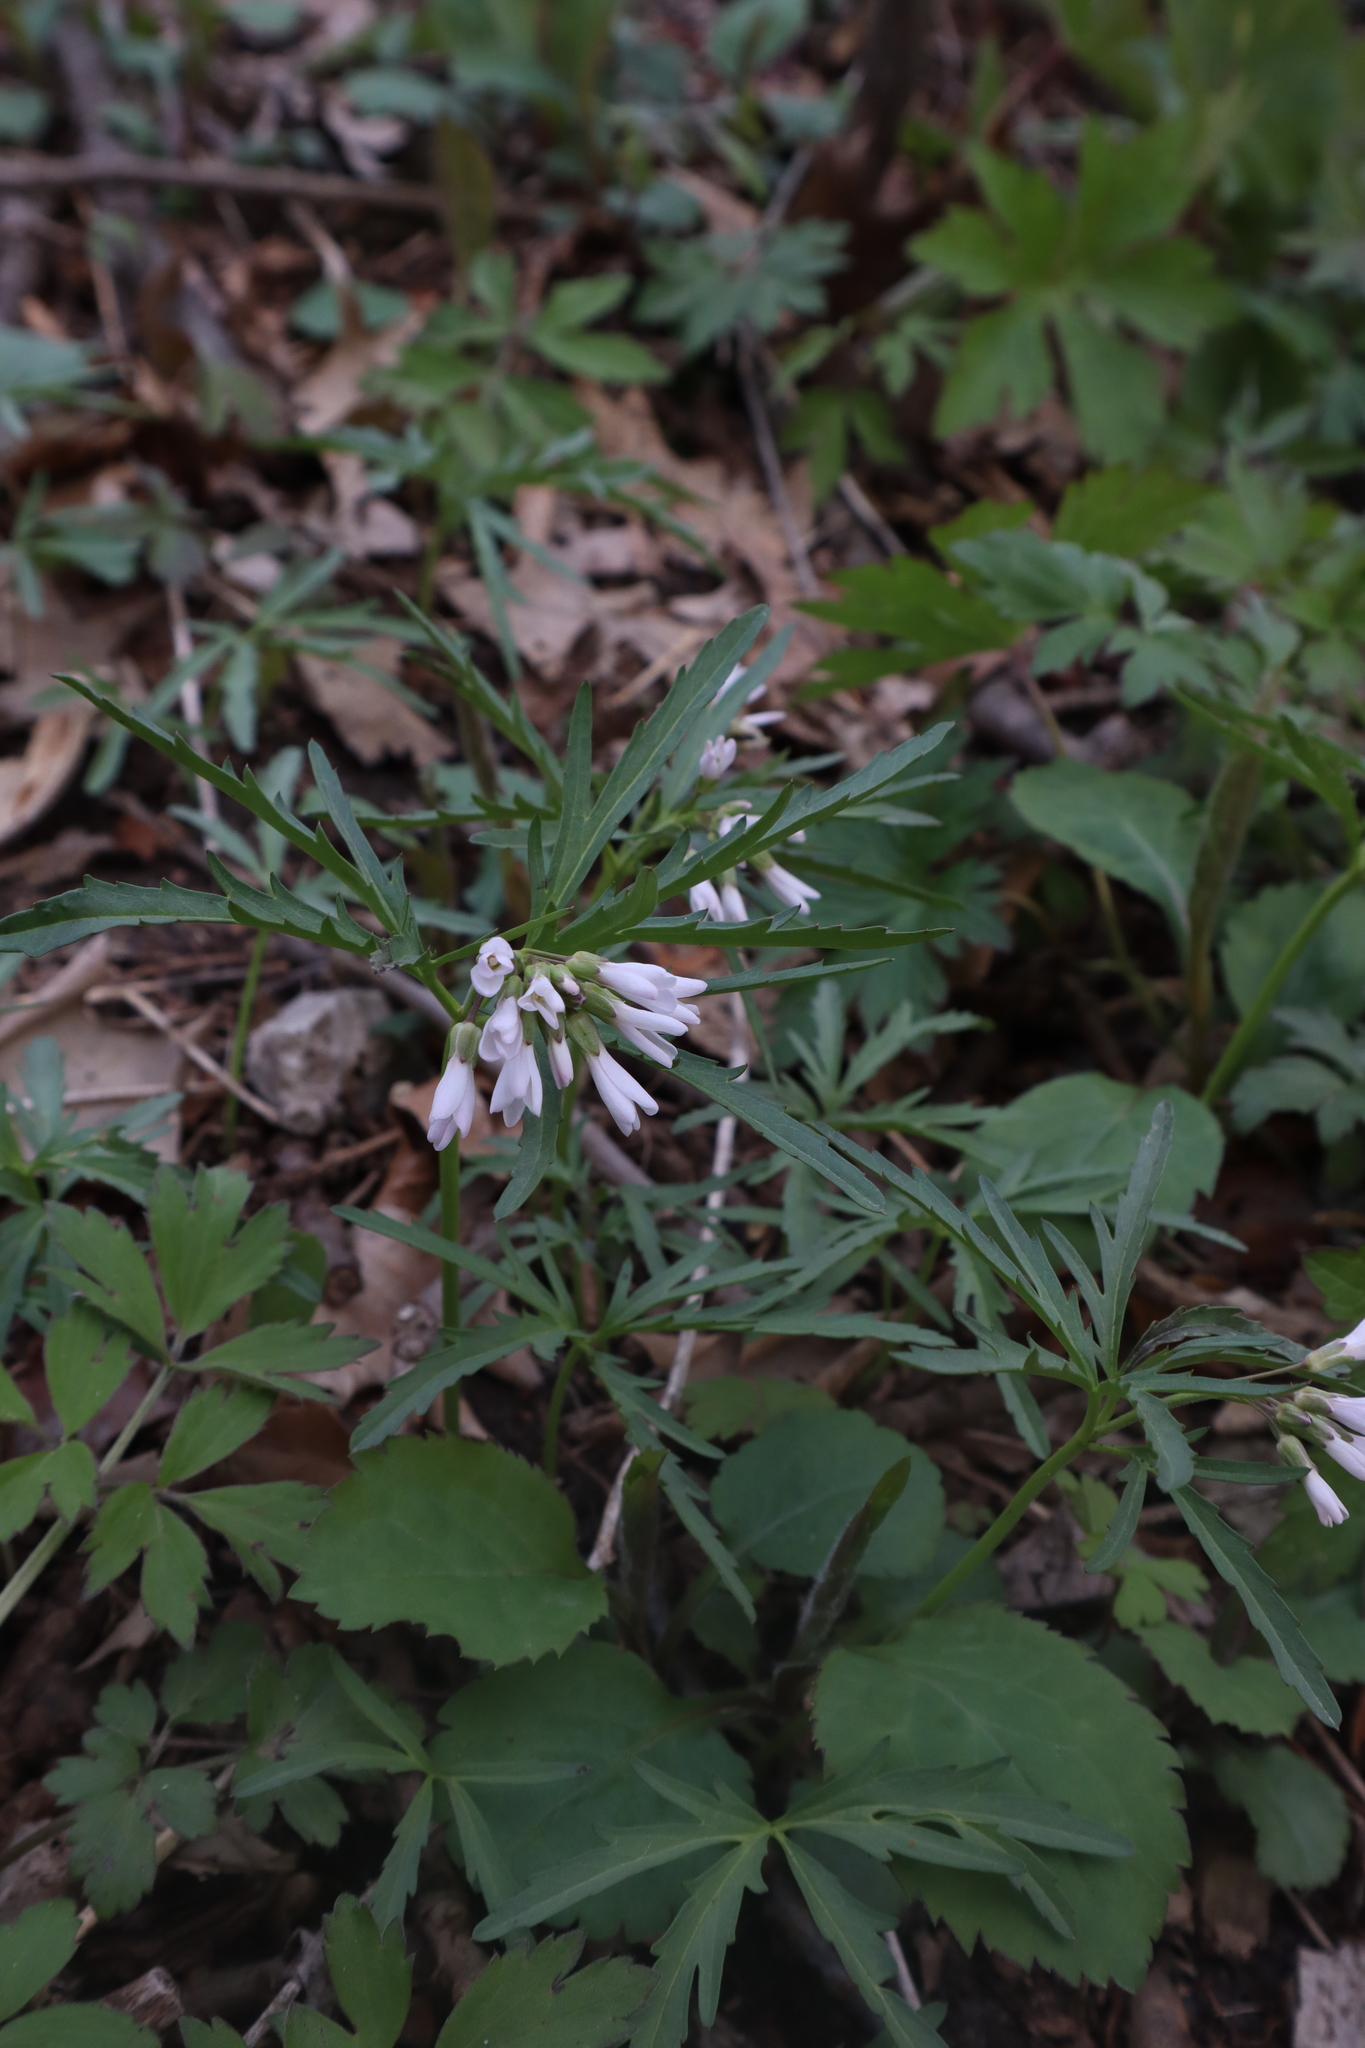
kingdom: Plantae
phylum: Tracheophyta
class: Magnoliopsida
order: Brassicales
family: Brassicaceae
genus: Cardamine
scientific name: Cardamine concatenata
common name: Cut-leaf toothcup
